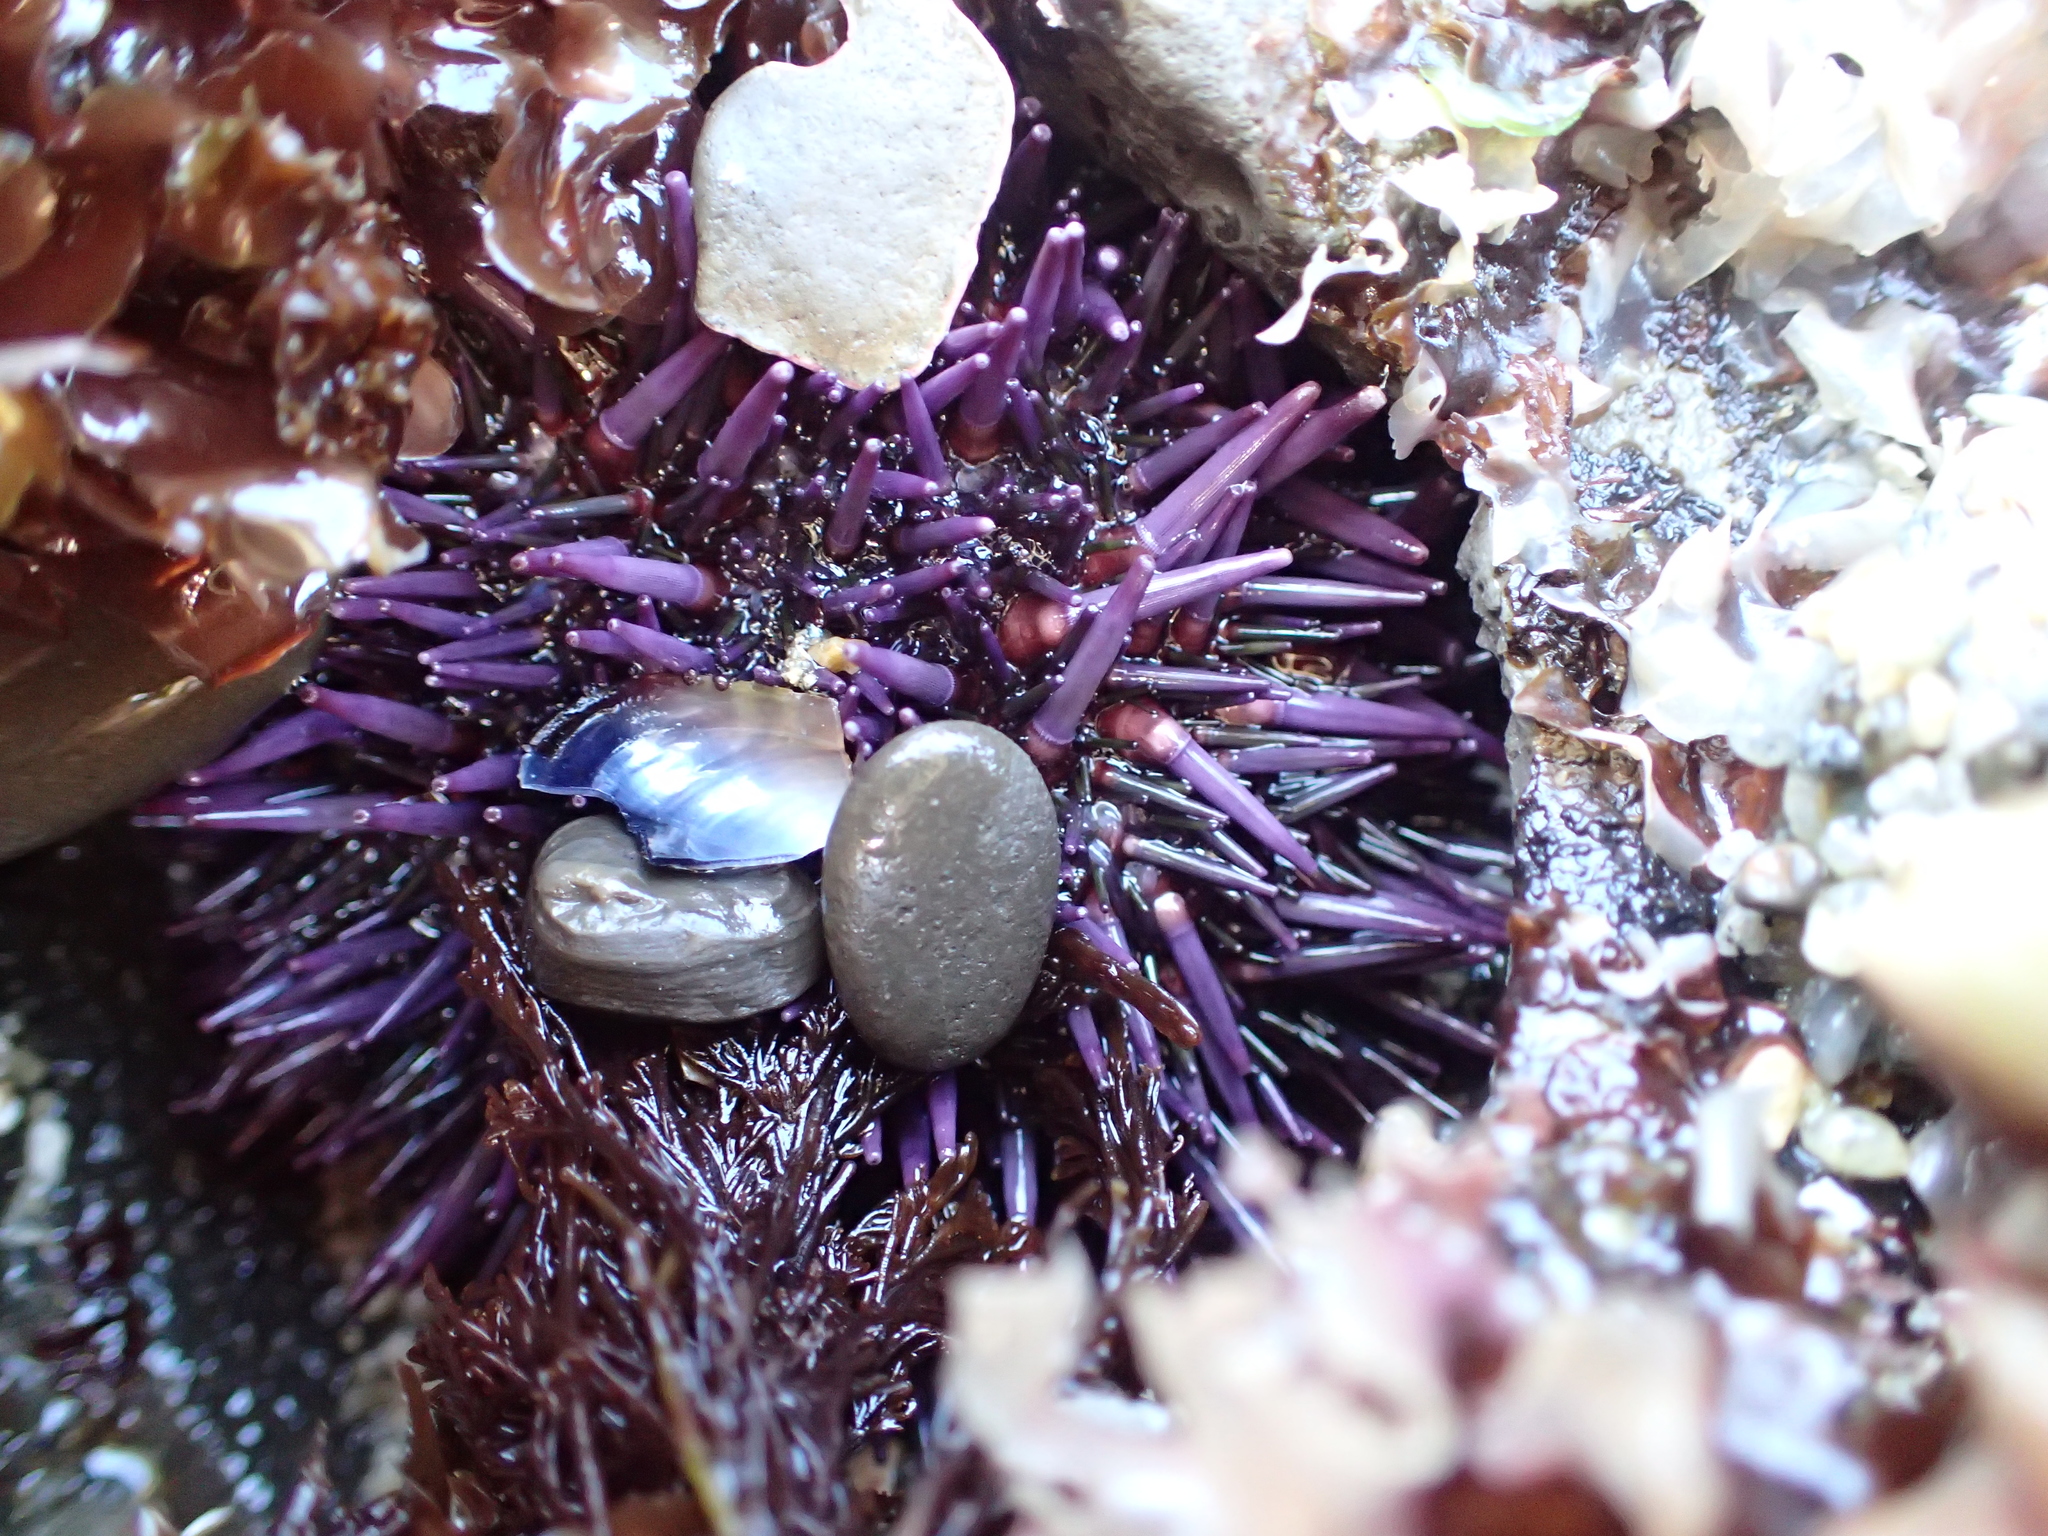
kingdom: Animalia
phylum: Echinodermata
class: Echinoidea
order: Camarodonta
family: Strongylocentrotidae
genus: Strongylocentrotus
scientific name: Strongylocentrotus purpuratus
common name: Purple sea urchin
